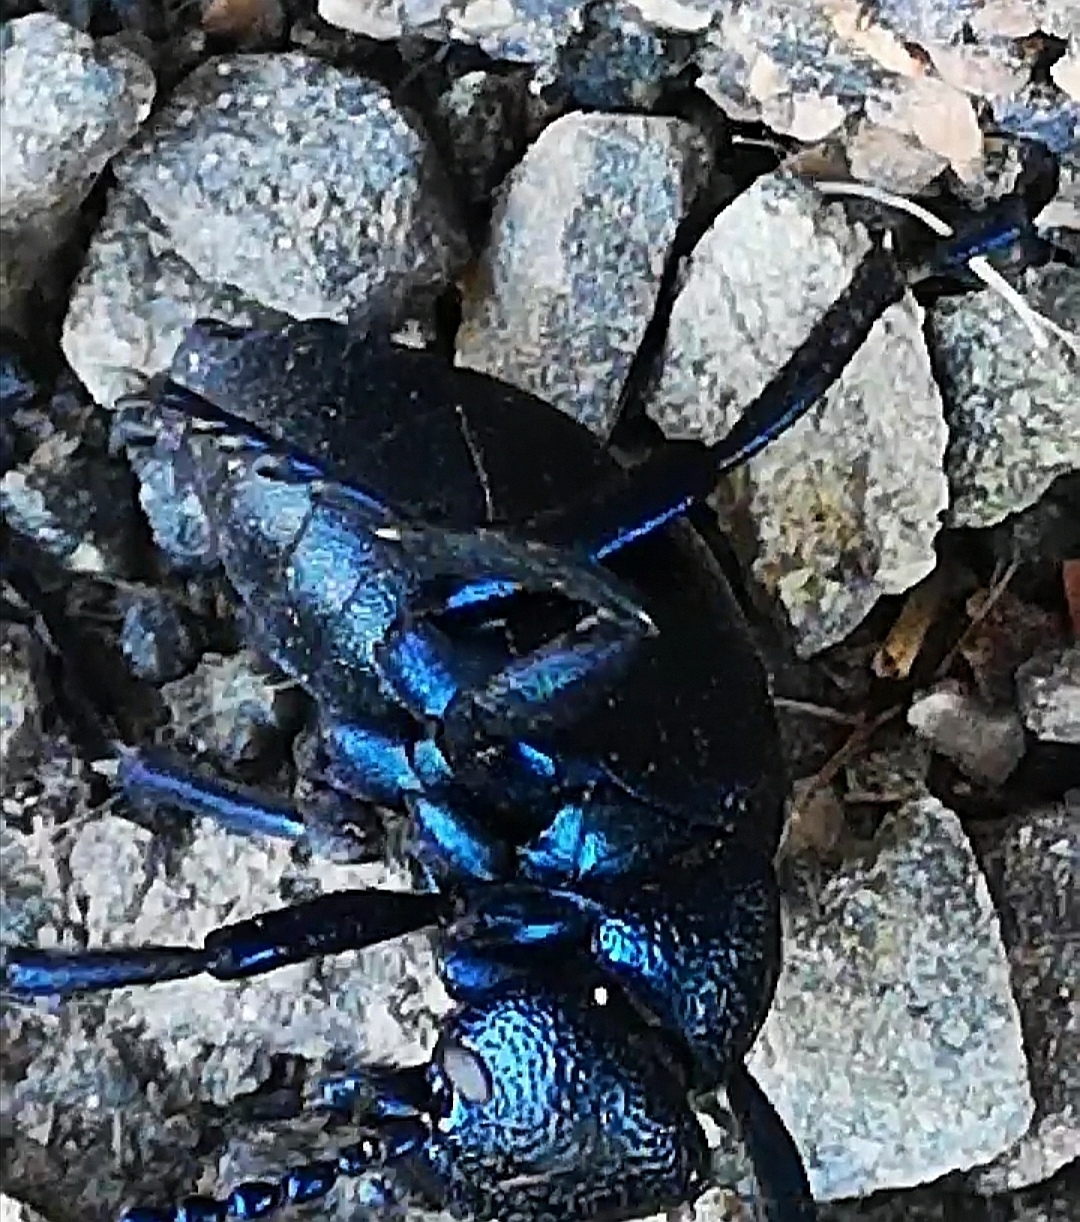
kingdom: Animalia
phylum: Arthropoda
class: Insecta
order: Coleoptera
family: Meloidae
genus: Meloe
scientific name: Meloe proscarabaeus
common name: Black oil-beetle
